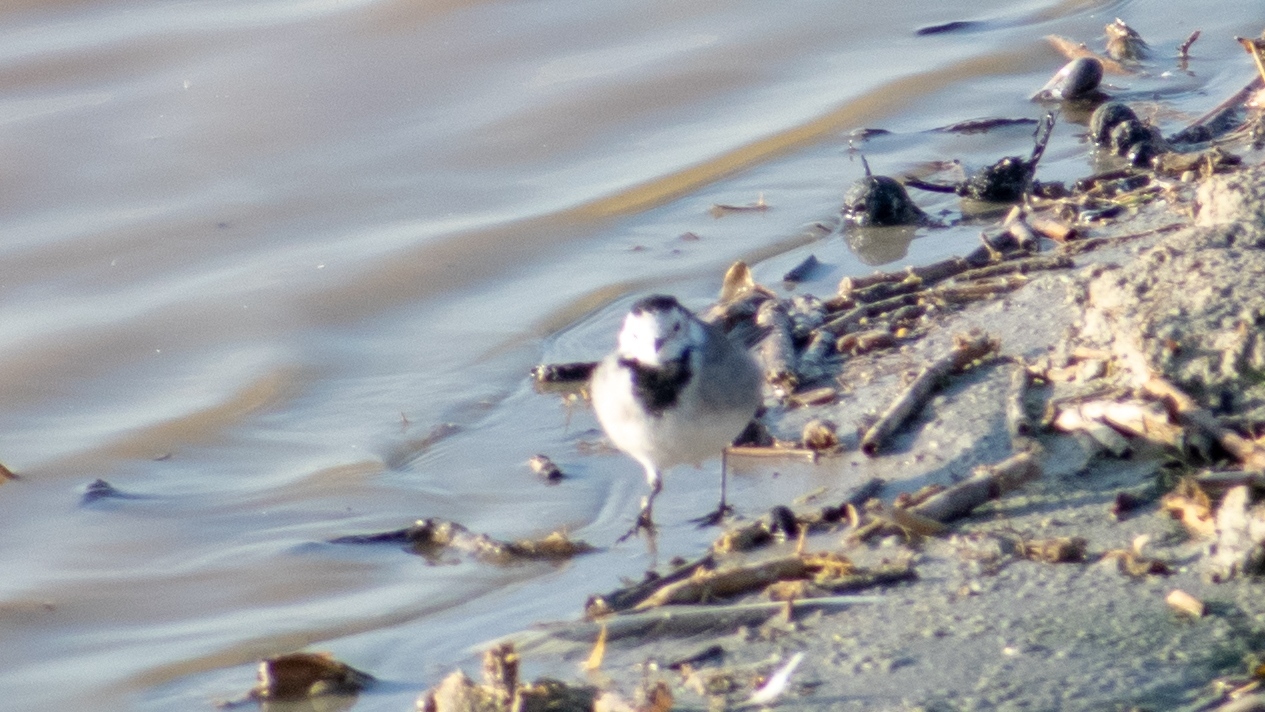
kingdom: Animalia
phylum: Chordata
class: Aves
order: Passeriformes
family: Motacillidae
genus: Motacilla
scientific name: Motacilla alba
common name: White wagtail
